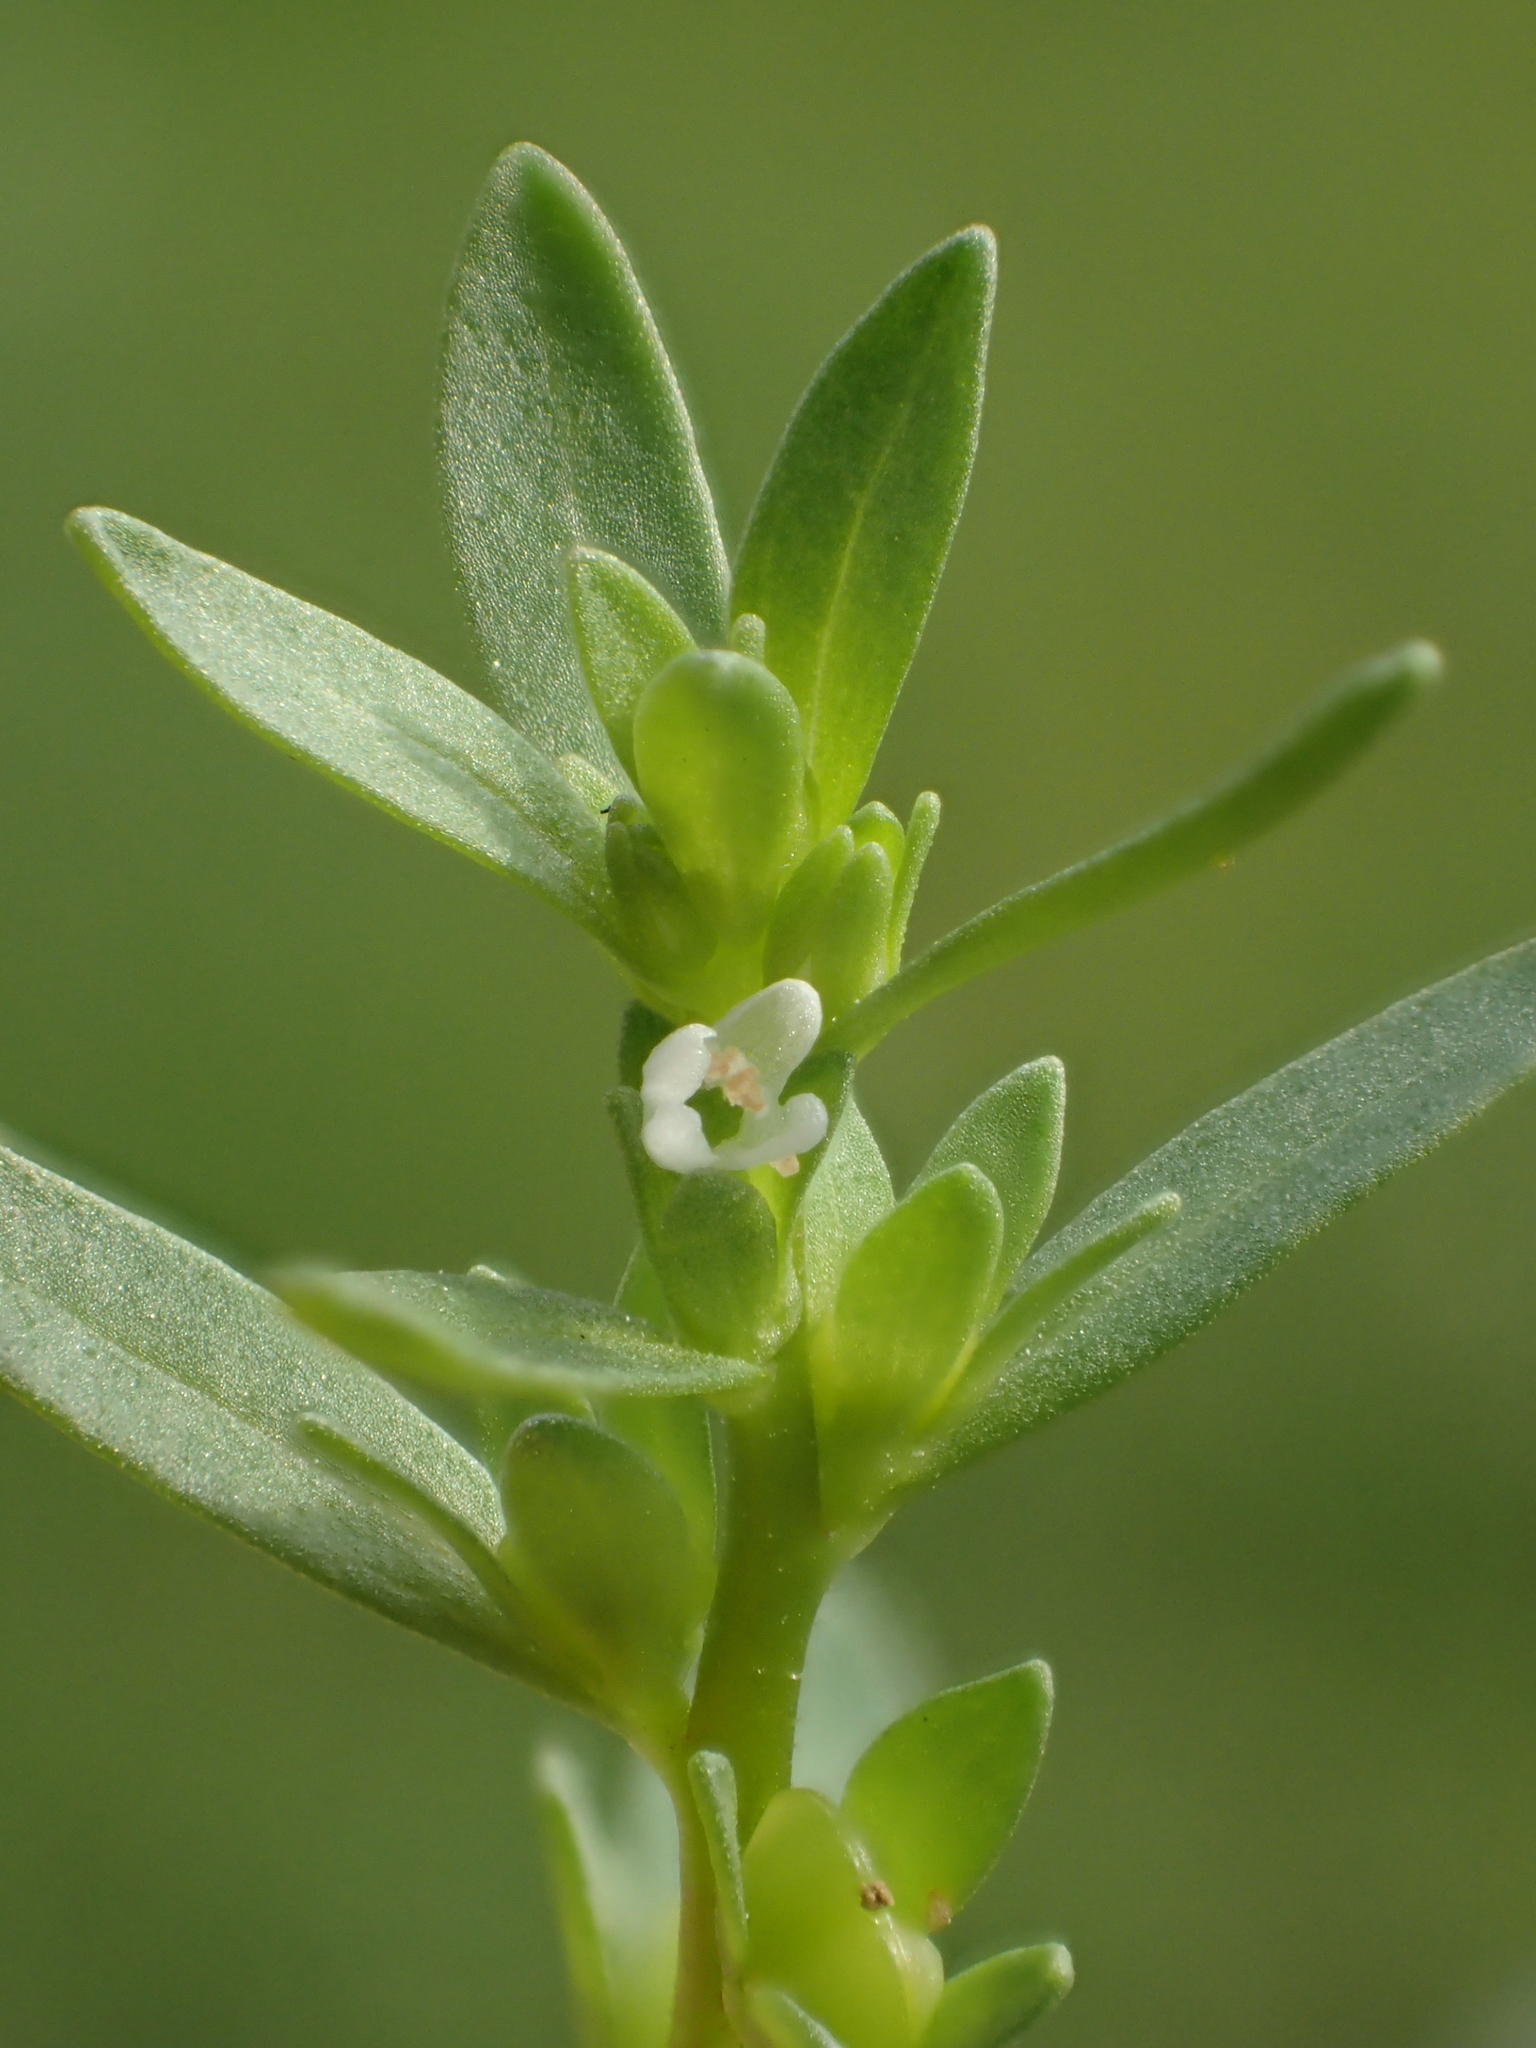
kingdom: Plantae
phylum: Tracheophyta
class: Magnoliopsida
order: Lamiales
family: Plantaginaceae
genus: Veronica
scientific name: Veronica peregrina
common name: Neckweed
